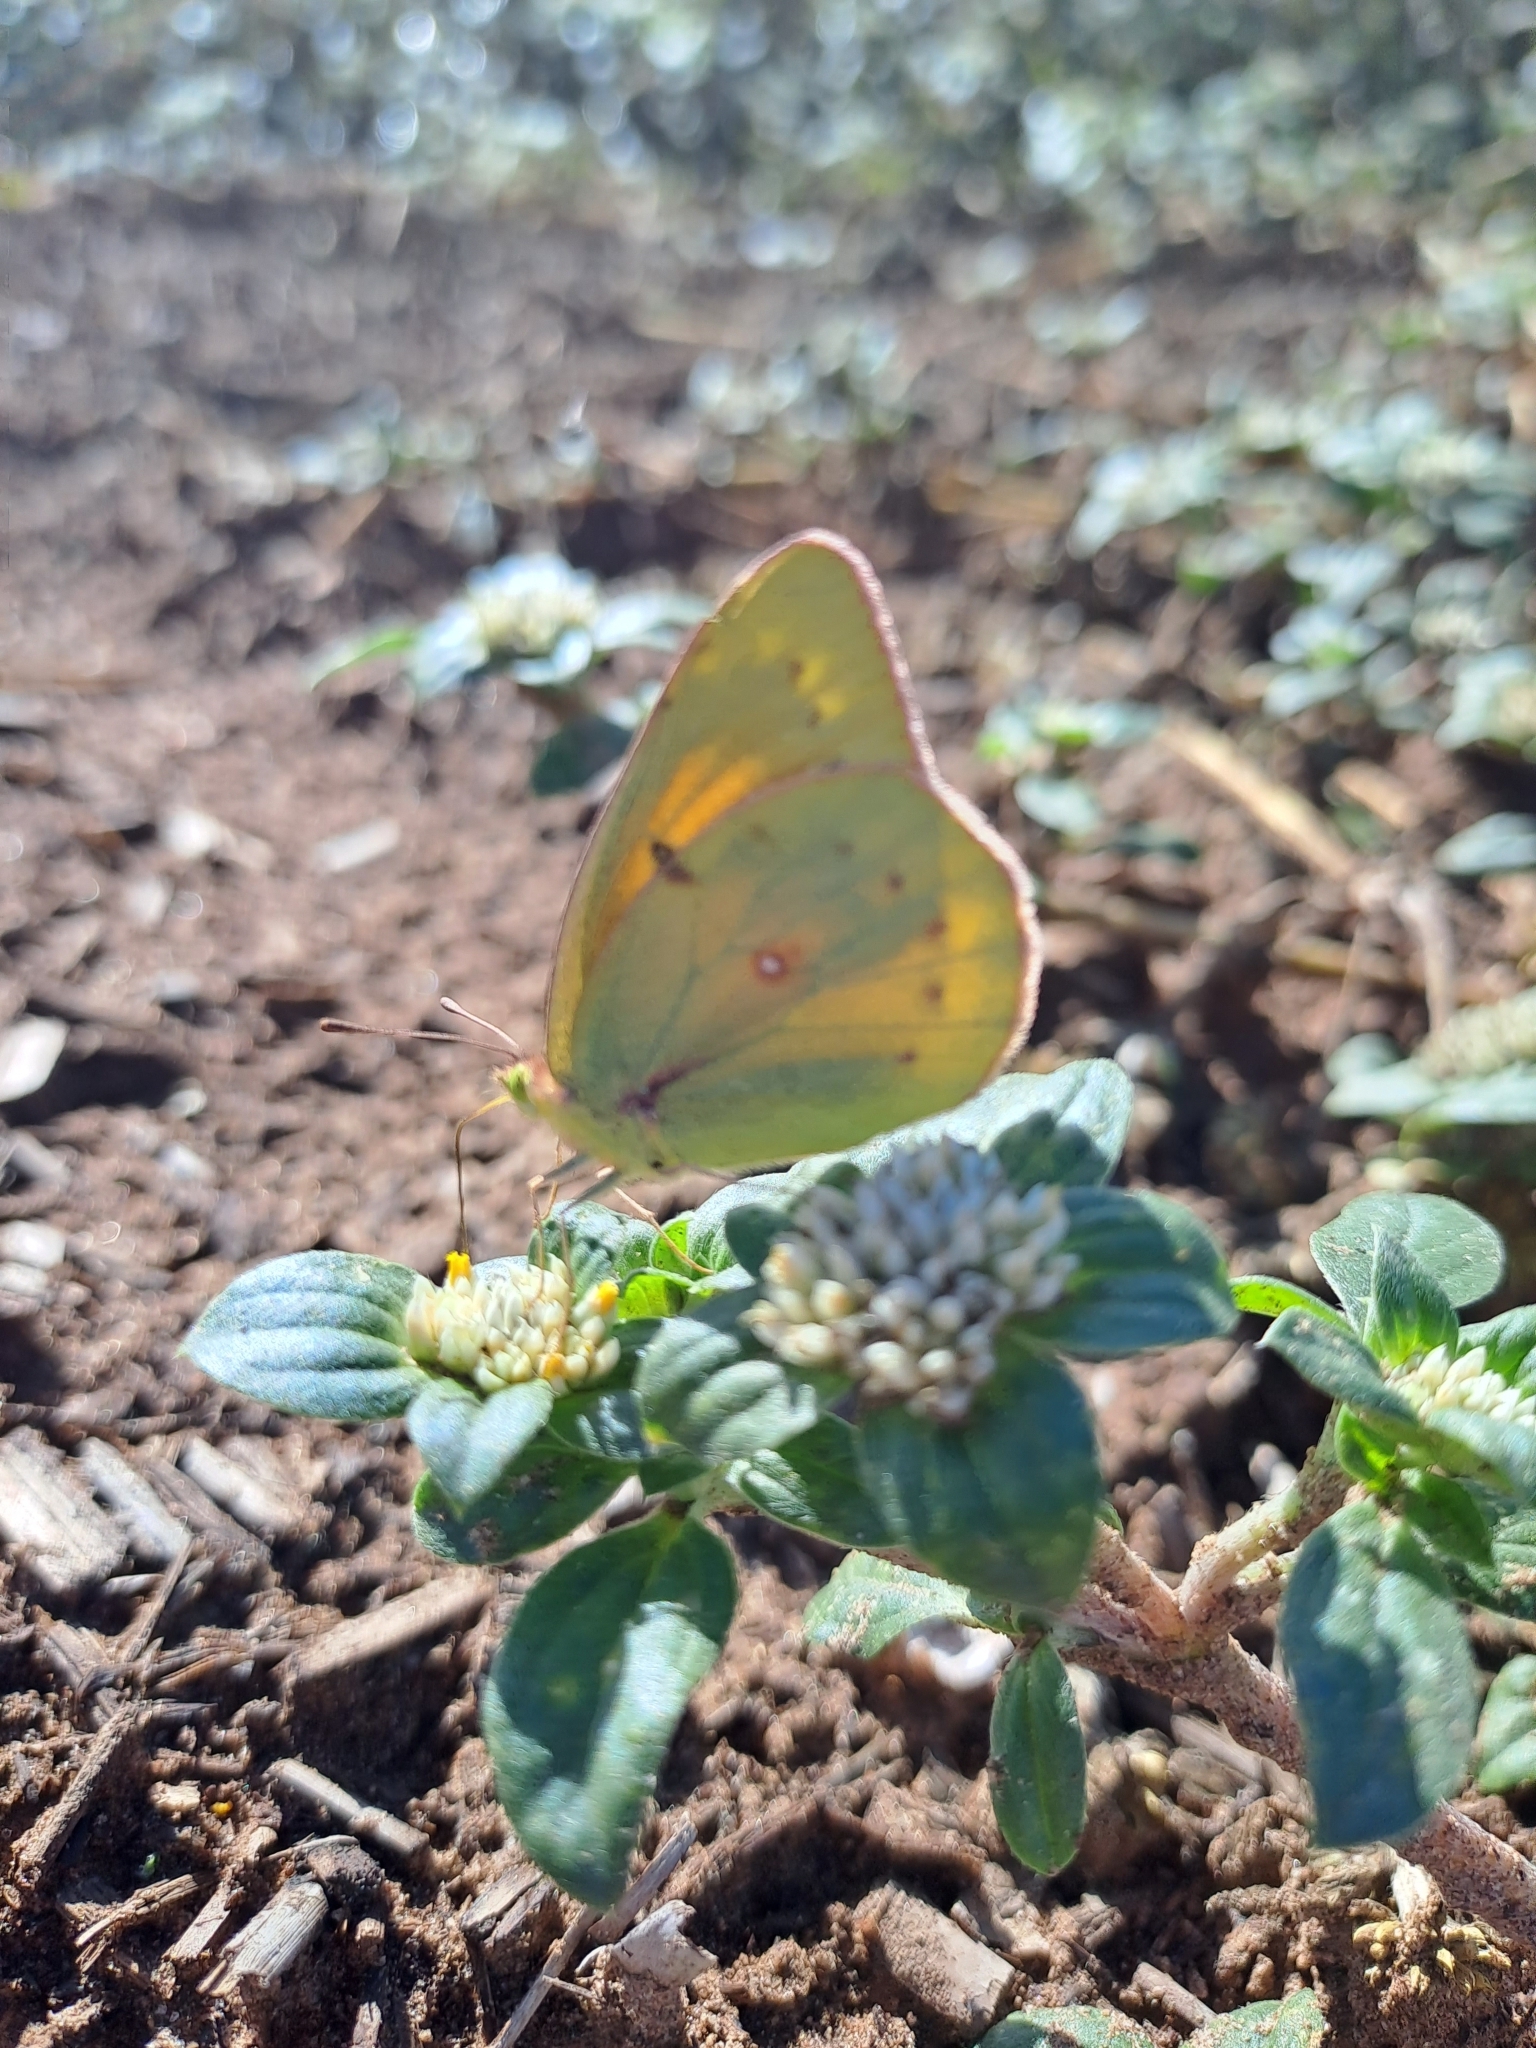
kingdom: Animalia
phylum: Arthropoda
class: Insecta
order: Lepidoptera
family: Pieridae
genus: Colias
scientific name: Colias lesbia
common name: Lesbia clouded yellow
